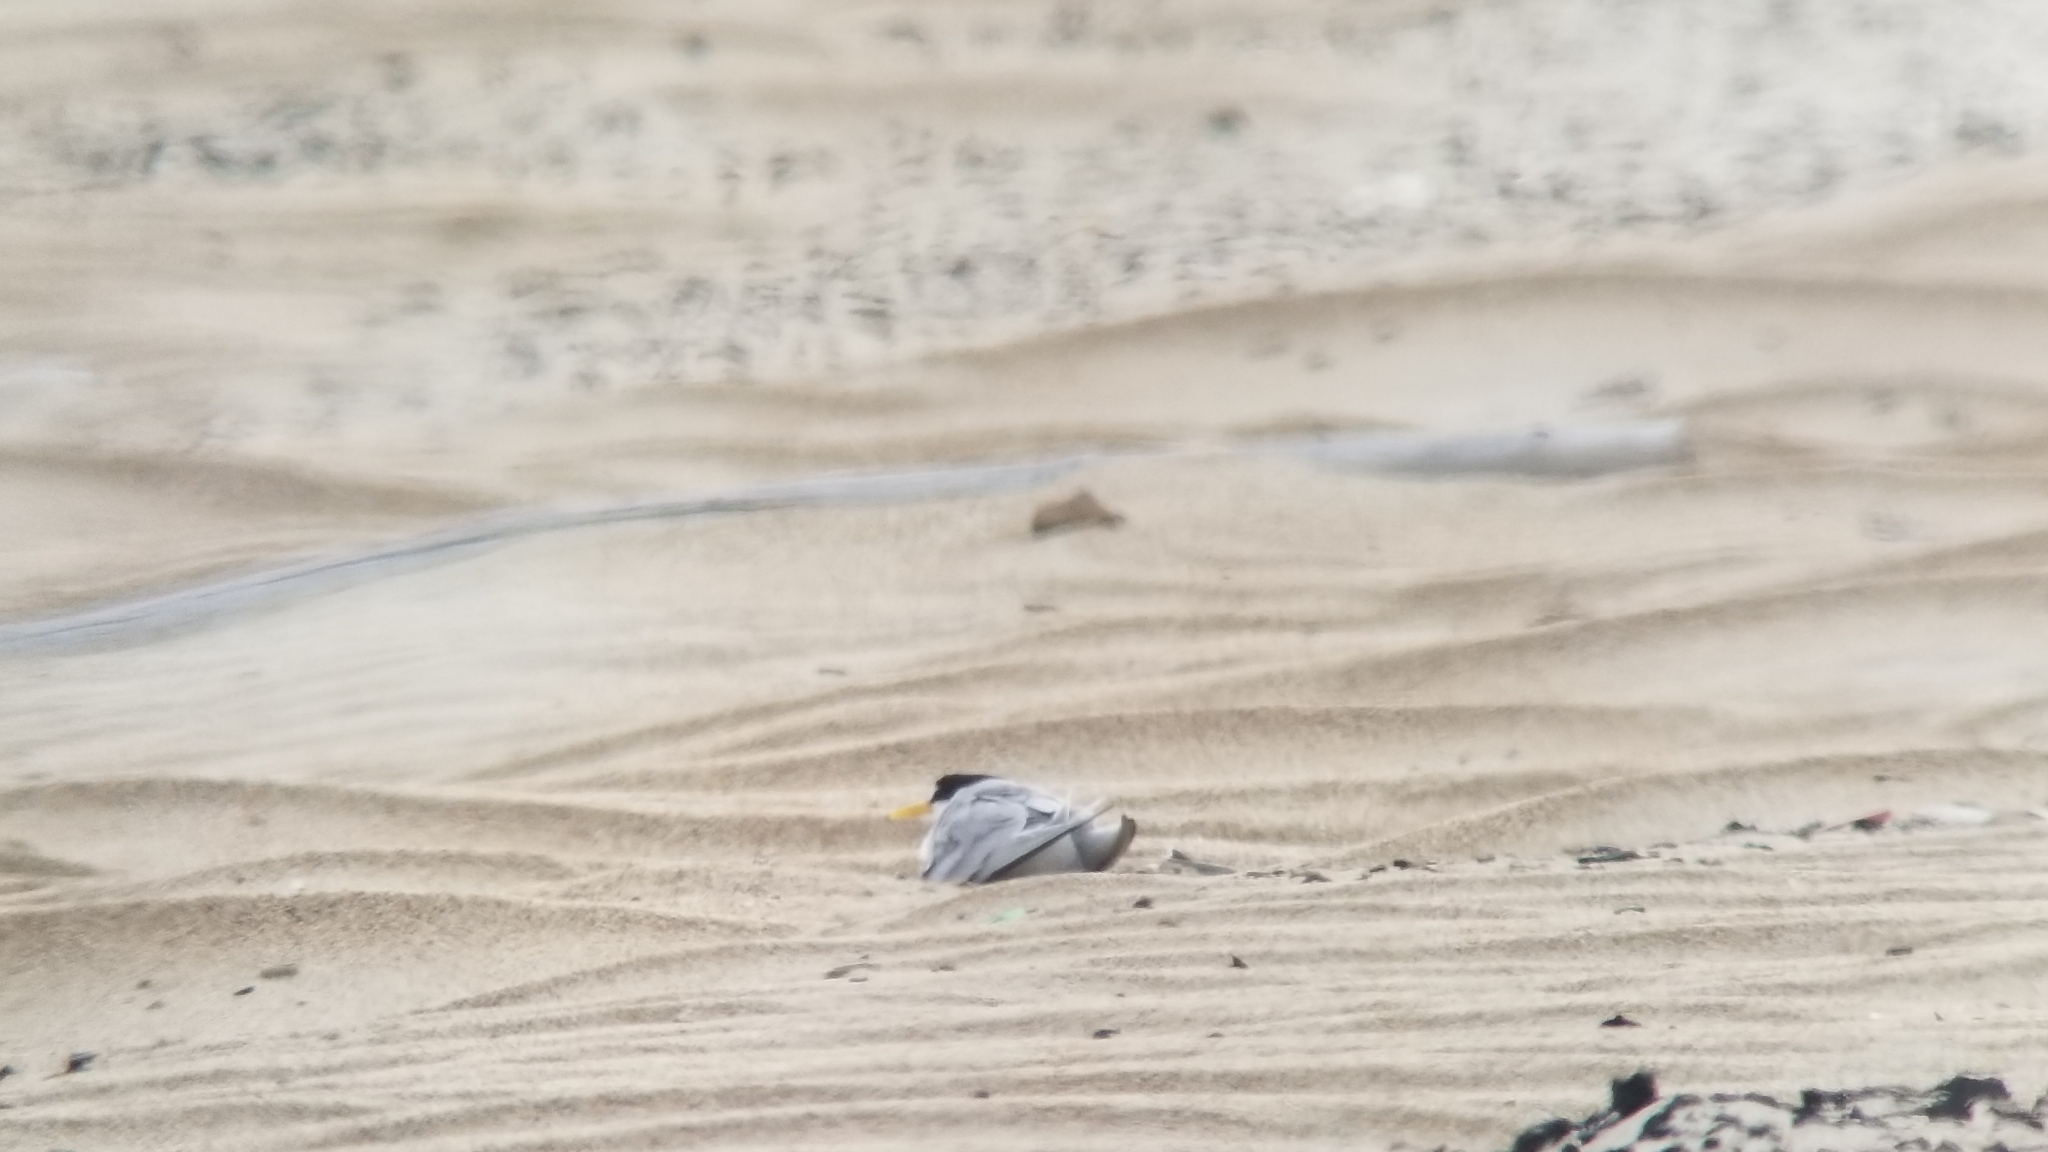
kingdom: Animalia
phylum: Chordata
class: Aves
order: Charadriiformes
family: Laridae
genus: Sternula
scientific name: Sternula antillarum
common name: Least tern
